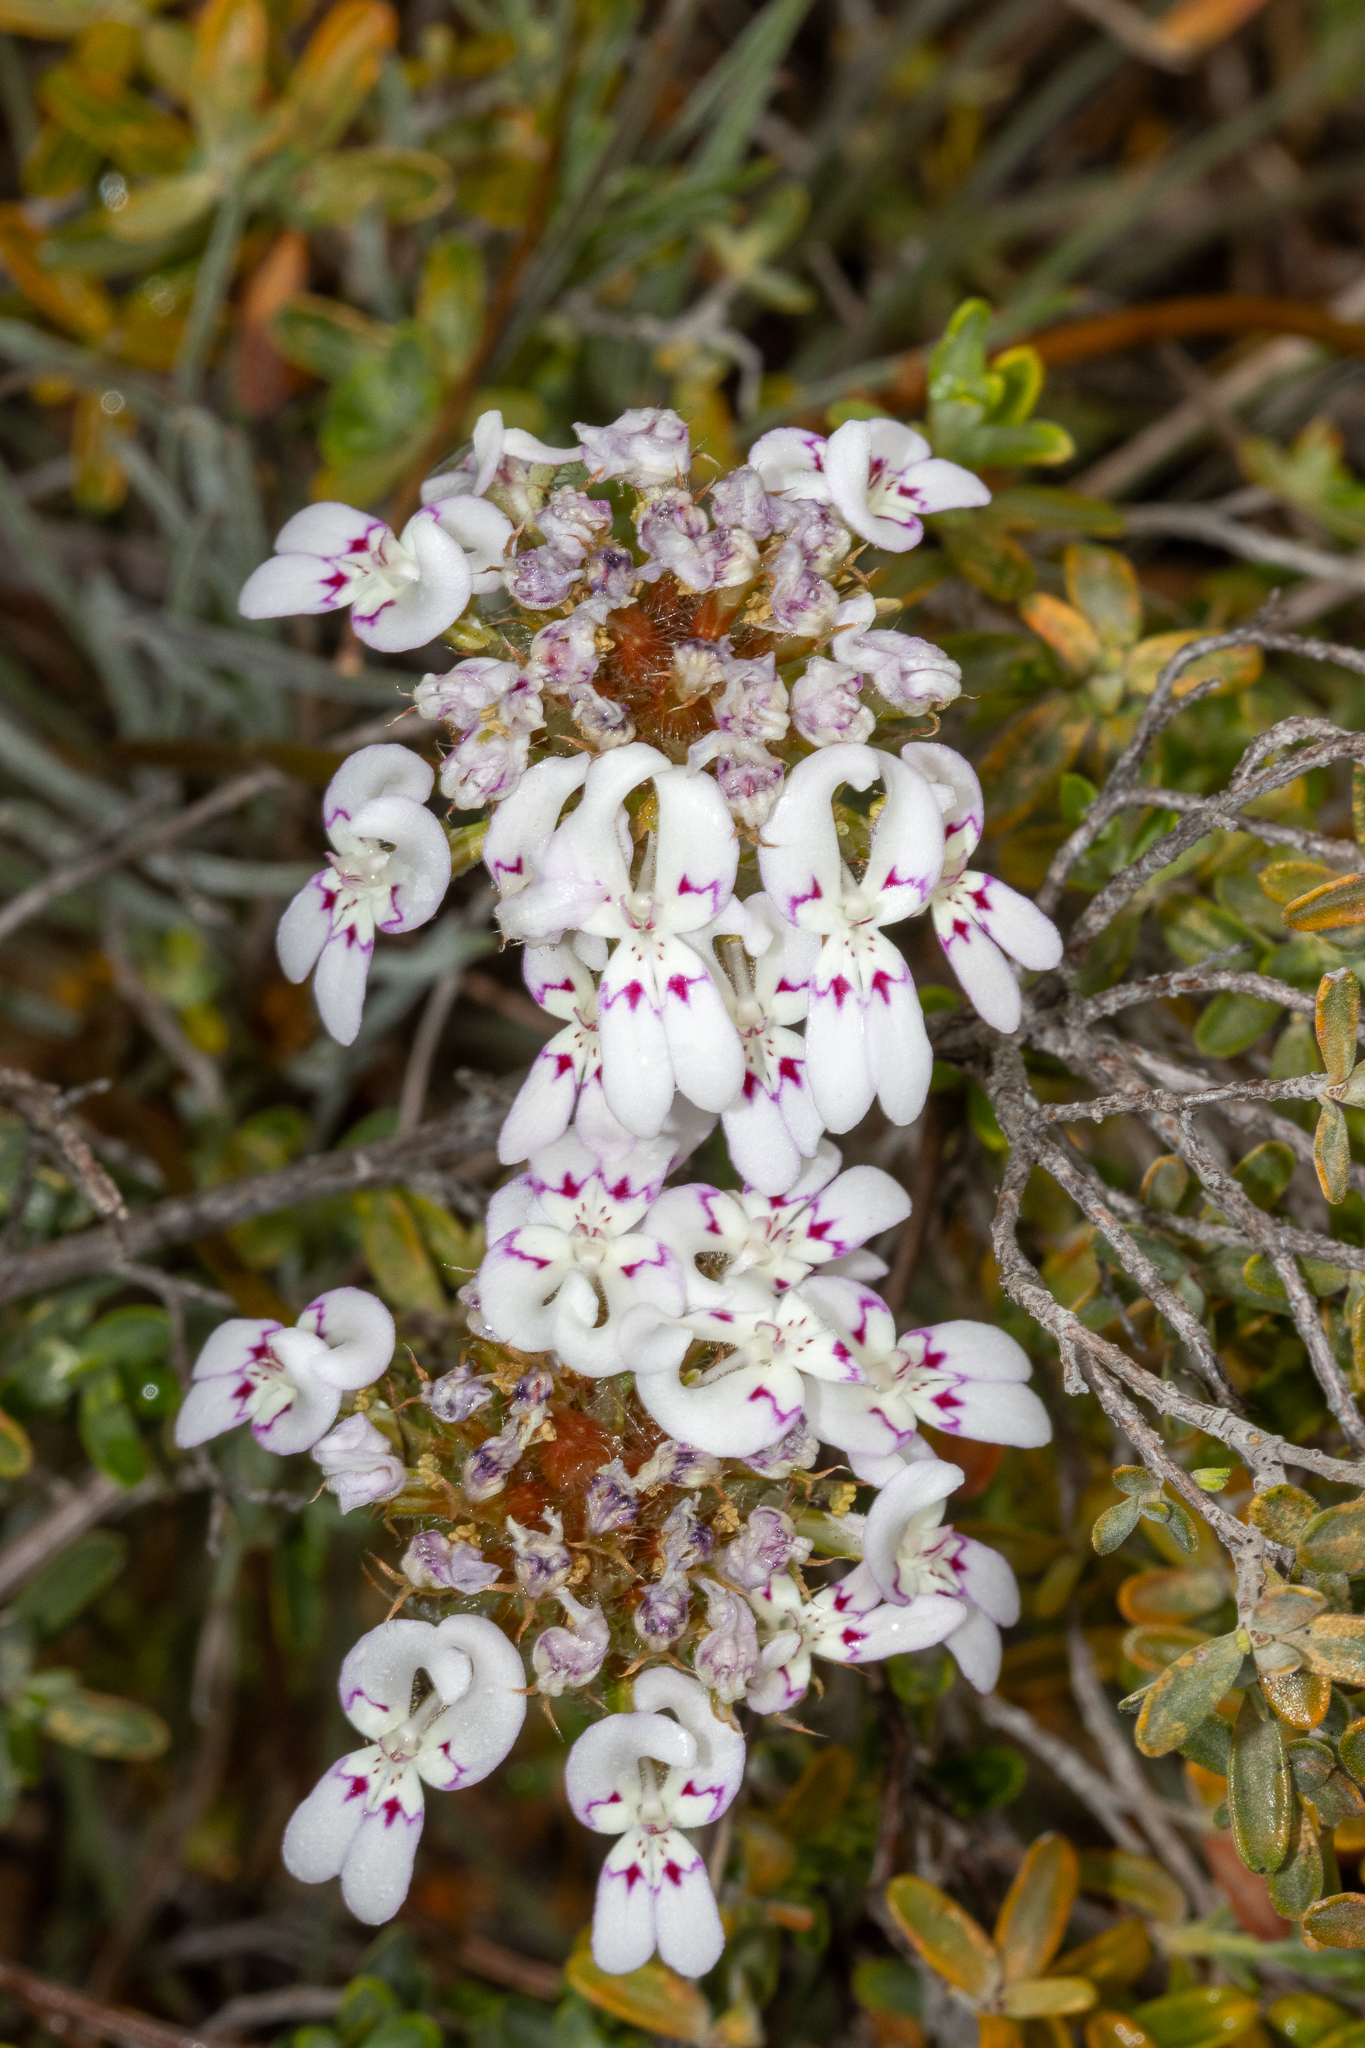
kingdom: Plantae
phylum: Tracheophyta
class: Magnoliopsida
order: Asterales
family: Stylidiaceae
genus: Stylidium
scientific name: Stylidium crossocephalum
